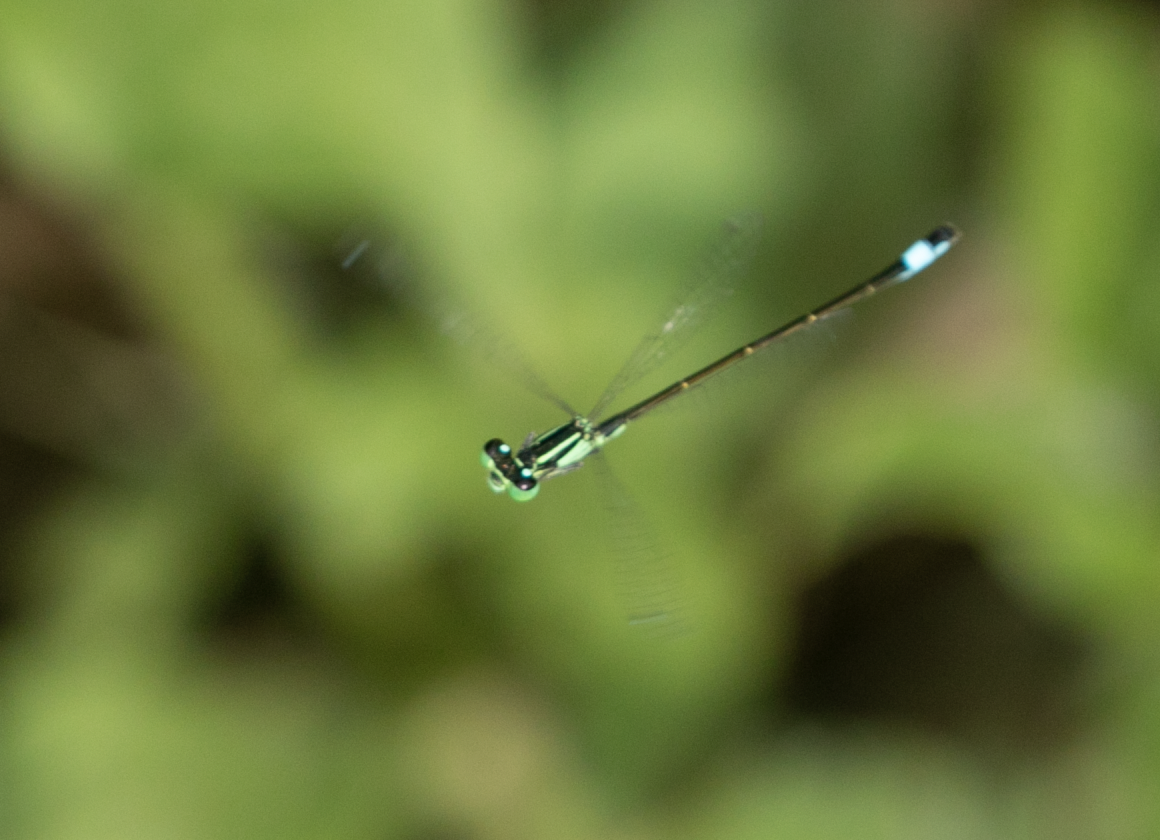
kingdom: Animalia
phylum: Arthropoda
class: Insecta
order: Odonata
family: Coenagrionidae
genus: Ischnura
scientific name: Ischnura elegans
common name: Blue-tailed damselfly
